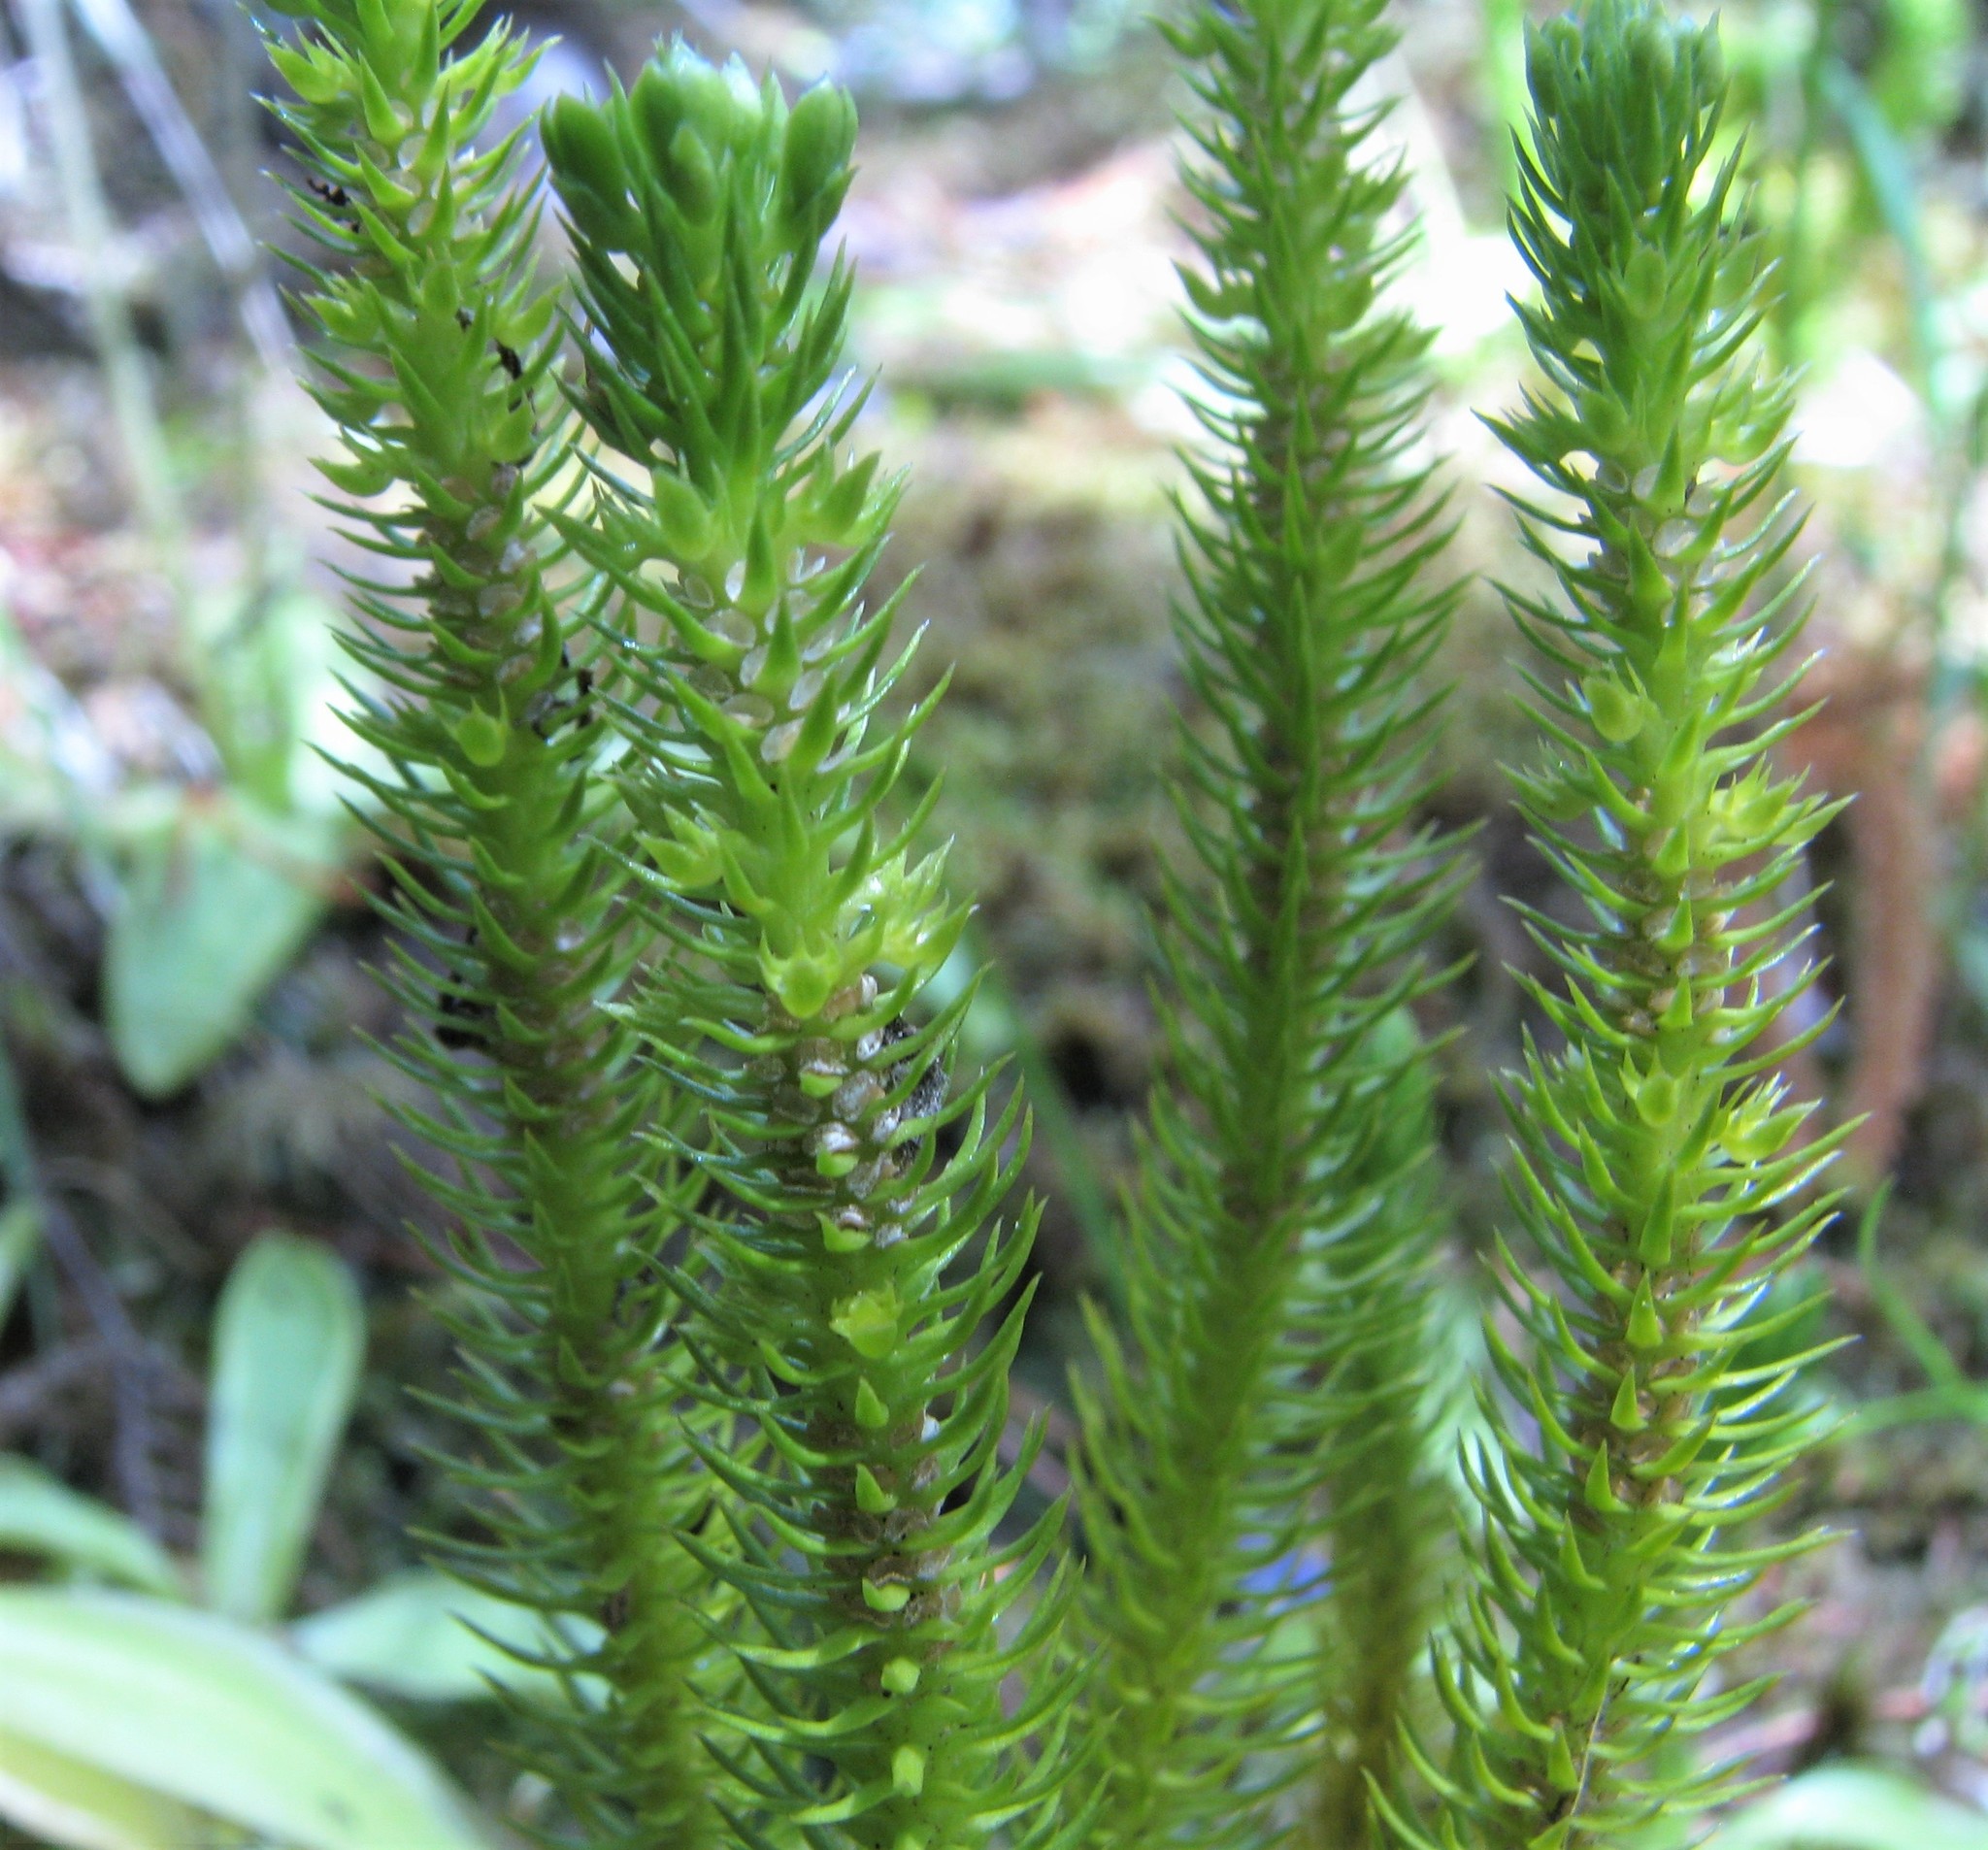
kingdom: Plantae
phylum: Tracheophyta
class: Lycopodiopsida
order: Lycopodiales
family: Lycopodiaceae
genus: Huperzia
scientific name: Huperzia miyoshiana
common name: Chinese clubmoss
